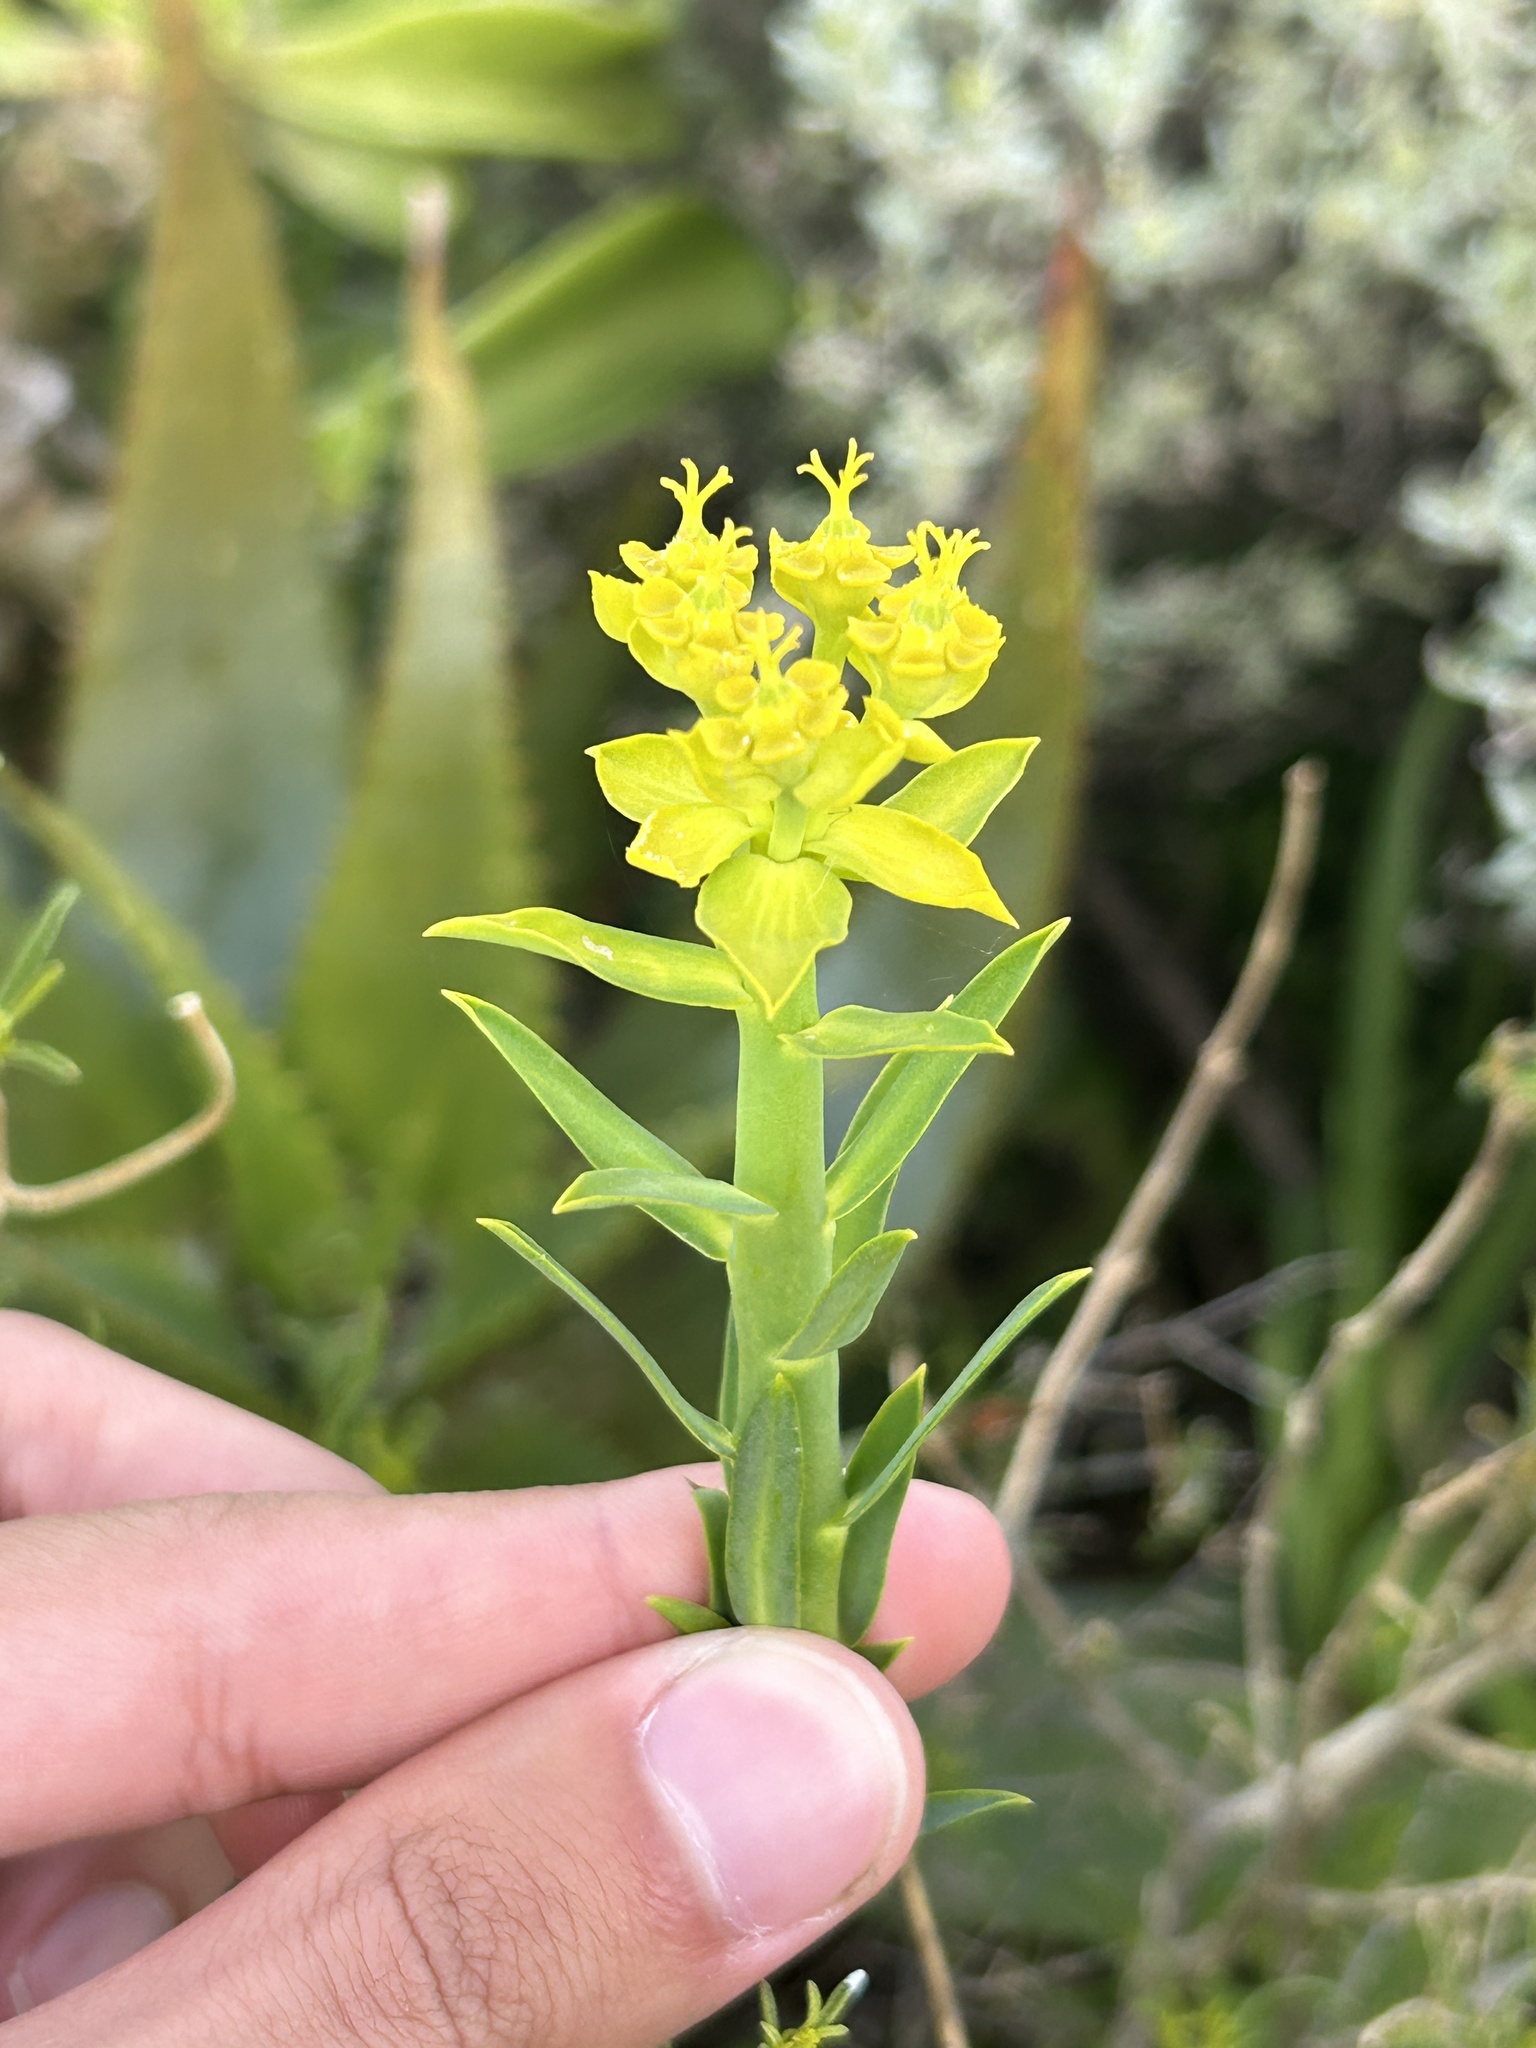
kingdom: Plantae
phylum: Tracheophyta
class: Magnoliopsida
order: Malpighiales
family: Euphorbiaceae
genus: Euphorbia
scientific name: Euphorbia mauritanica
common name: Jackal's-food
